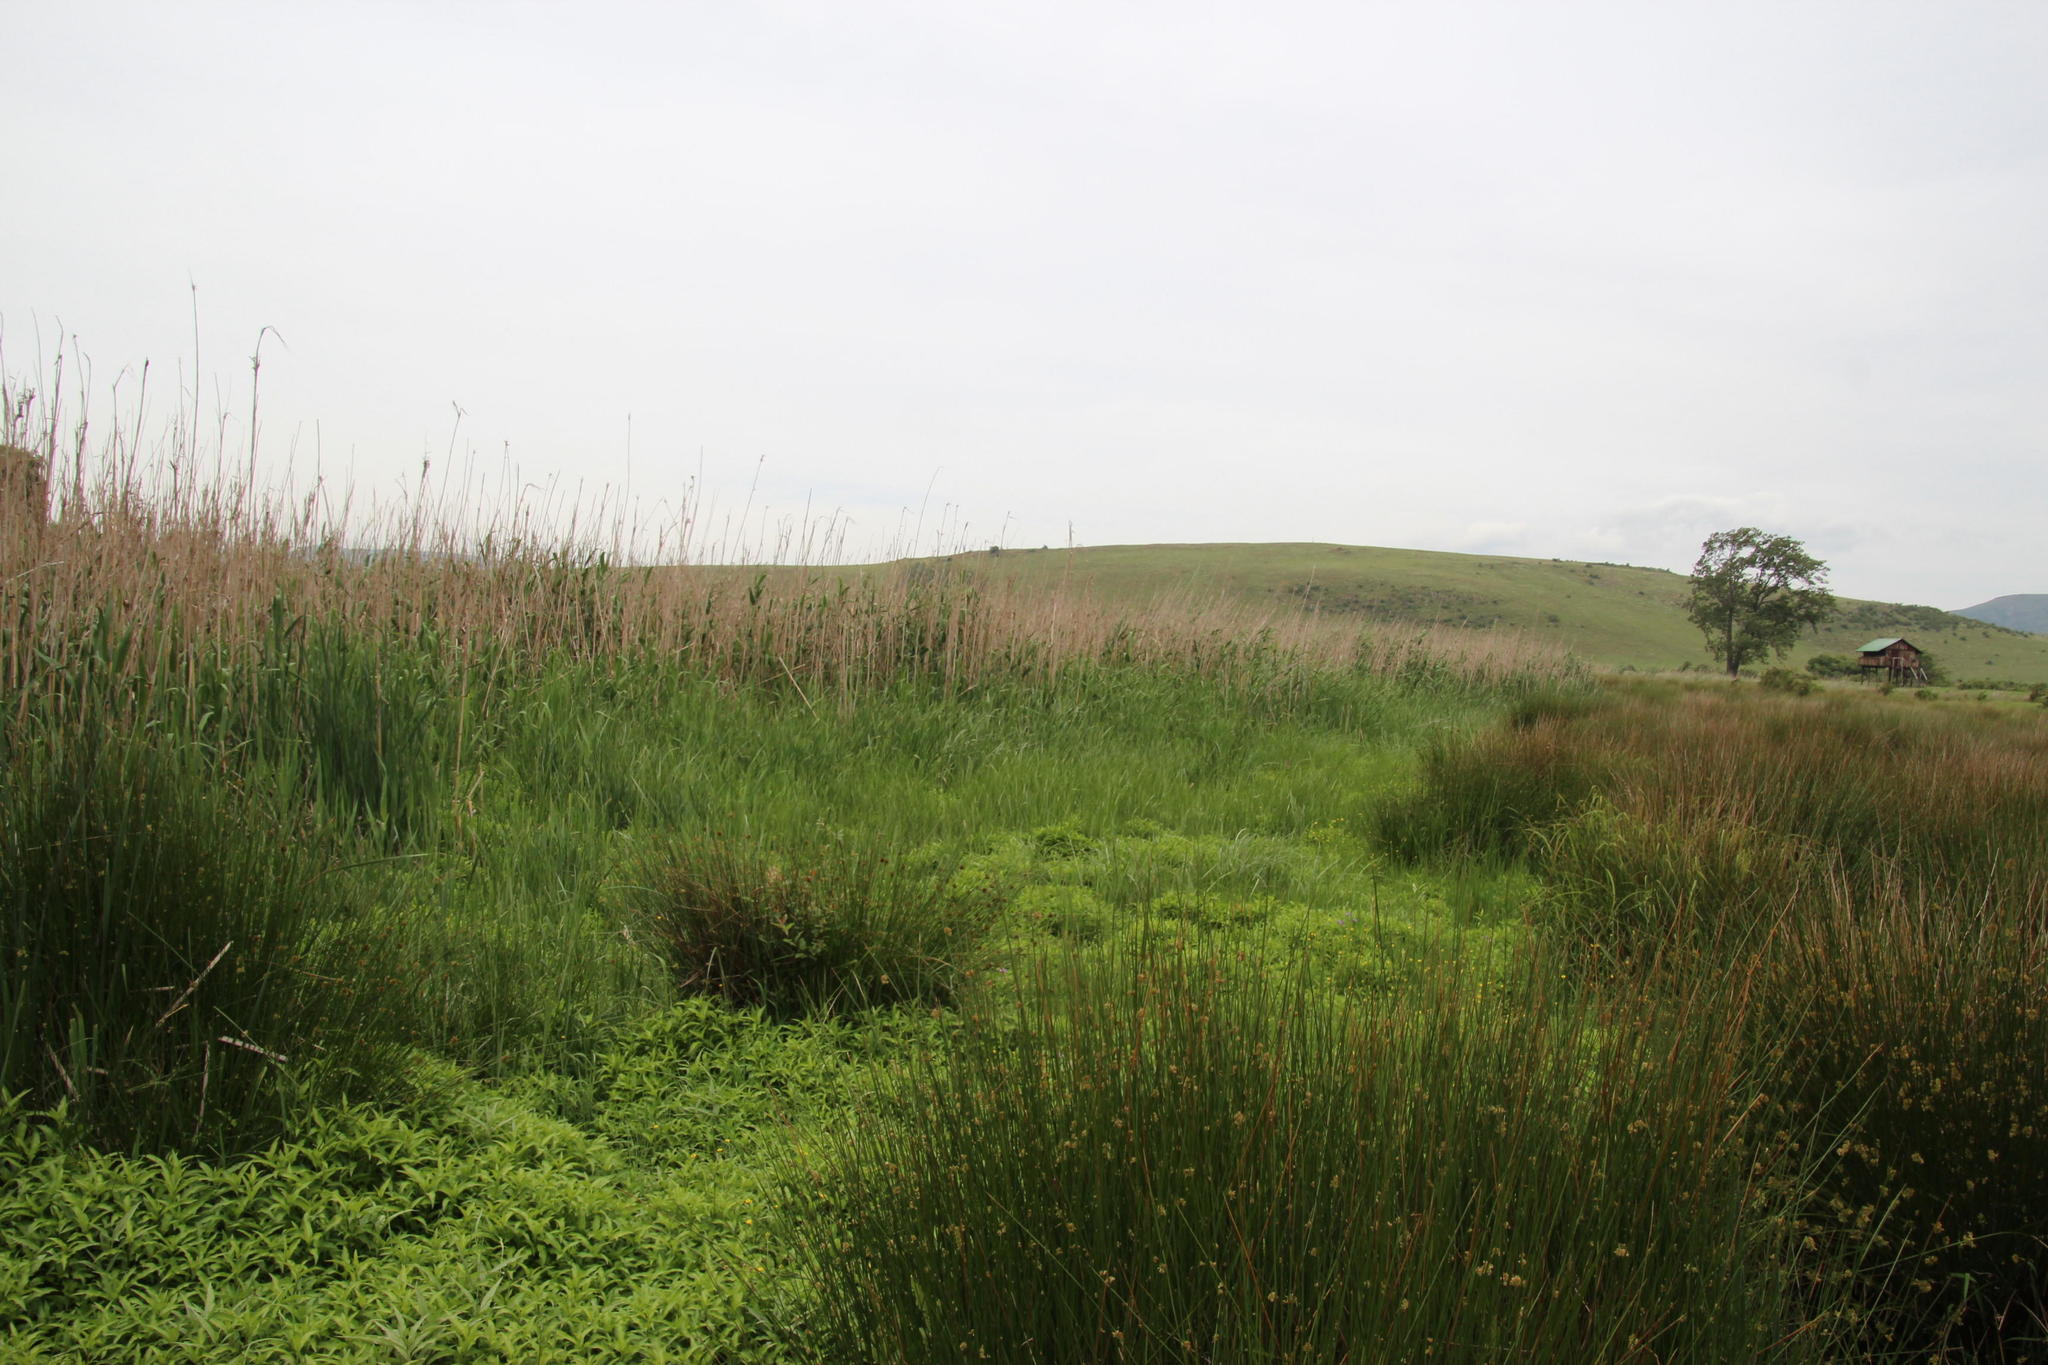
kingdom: Plantae
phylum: Tracheophyta
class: Liliopsida
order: Poales
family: Poaceae
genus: Phragmites
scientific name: Phragmites australis
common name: Common reed
